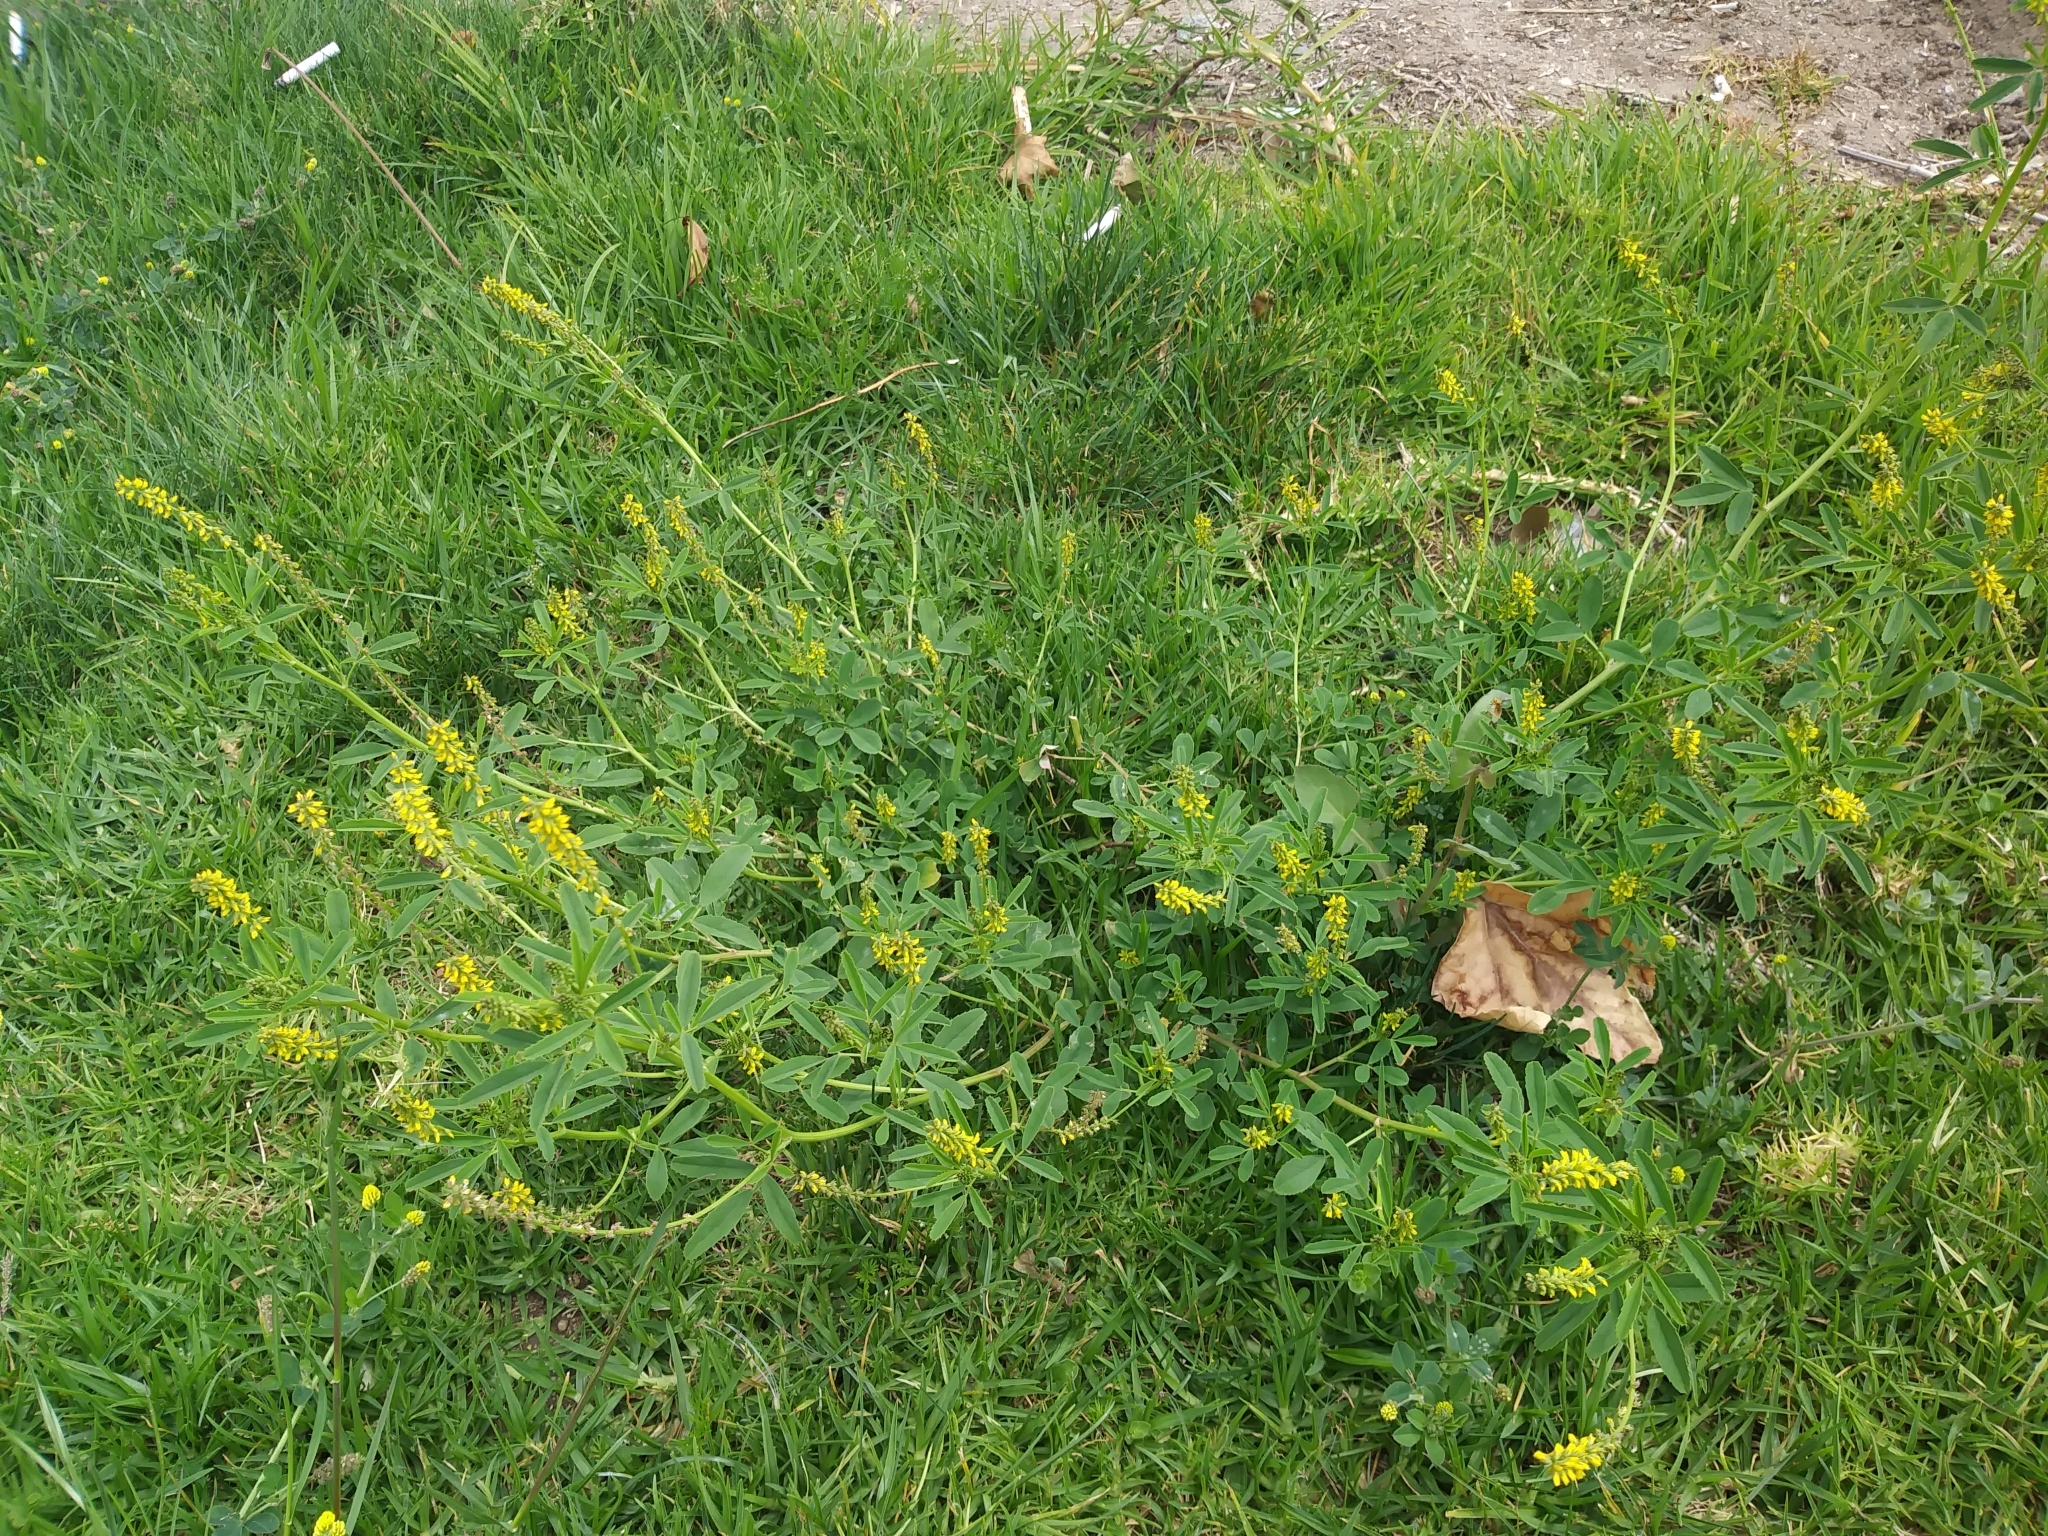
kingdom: Plantae
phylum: Tracheophyta
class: Magnoliopsida
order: Fabales
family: Fabaceae
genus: Melilotus
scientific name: Melilotus indicus
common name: Small melilot
